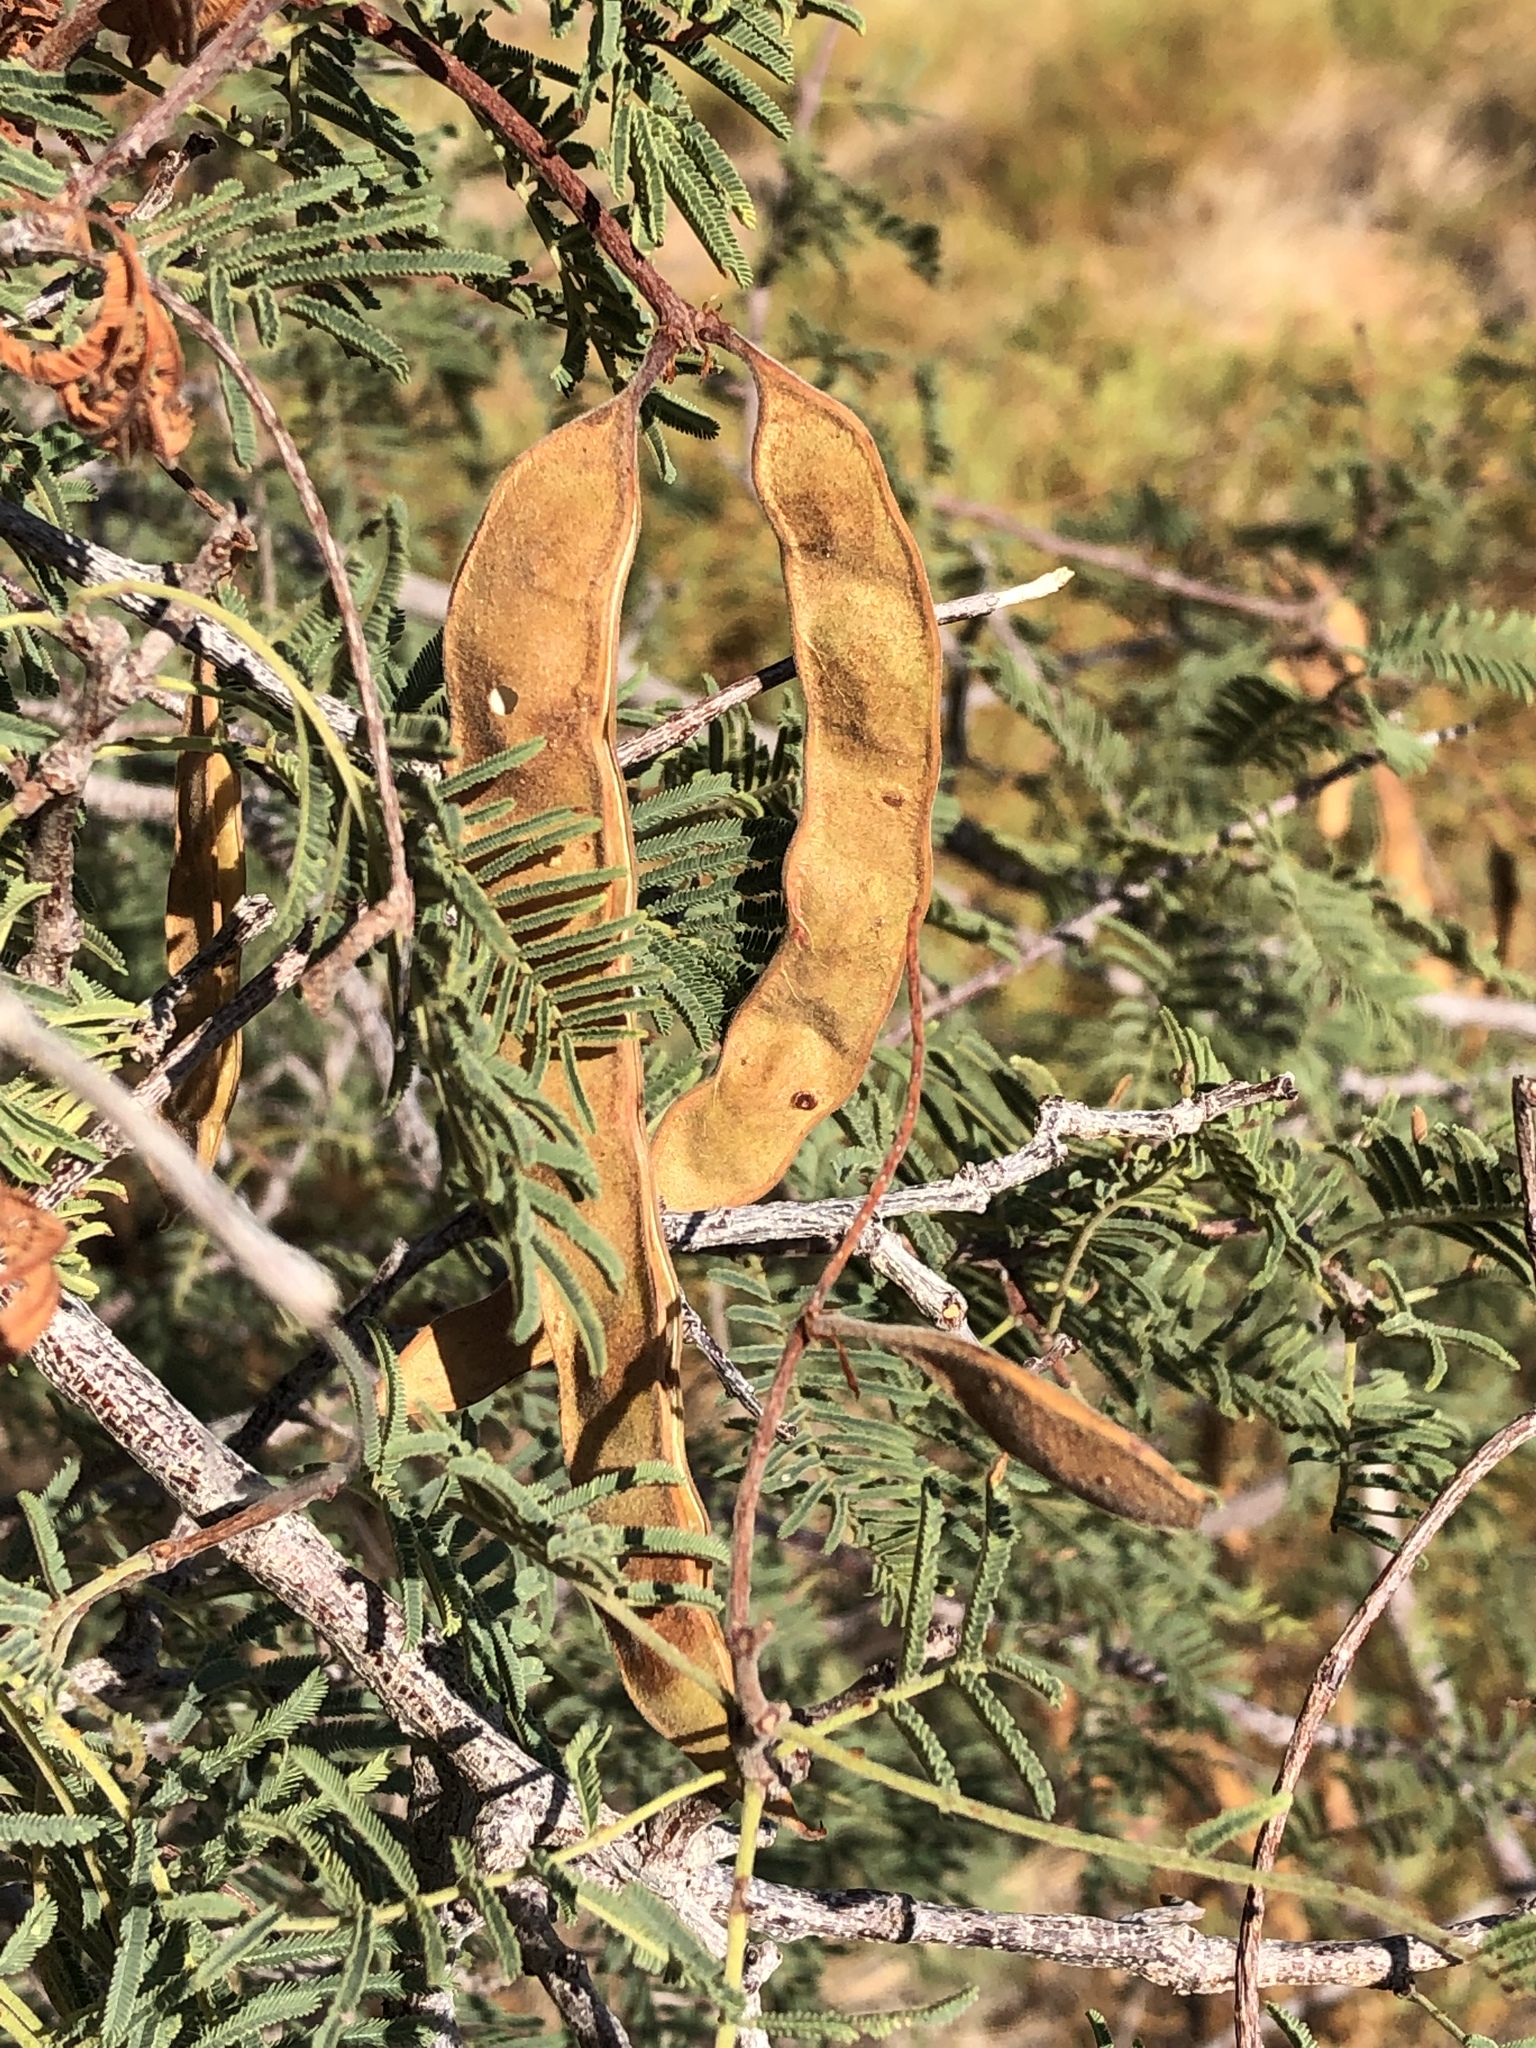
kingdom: Plantae
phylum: Tracheophyta
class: Magnoliopsida
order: Fabales
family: Fabaceae
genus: Senegalia
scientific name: Senegalia hereroensis
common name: Arid hook-thorn
